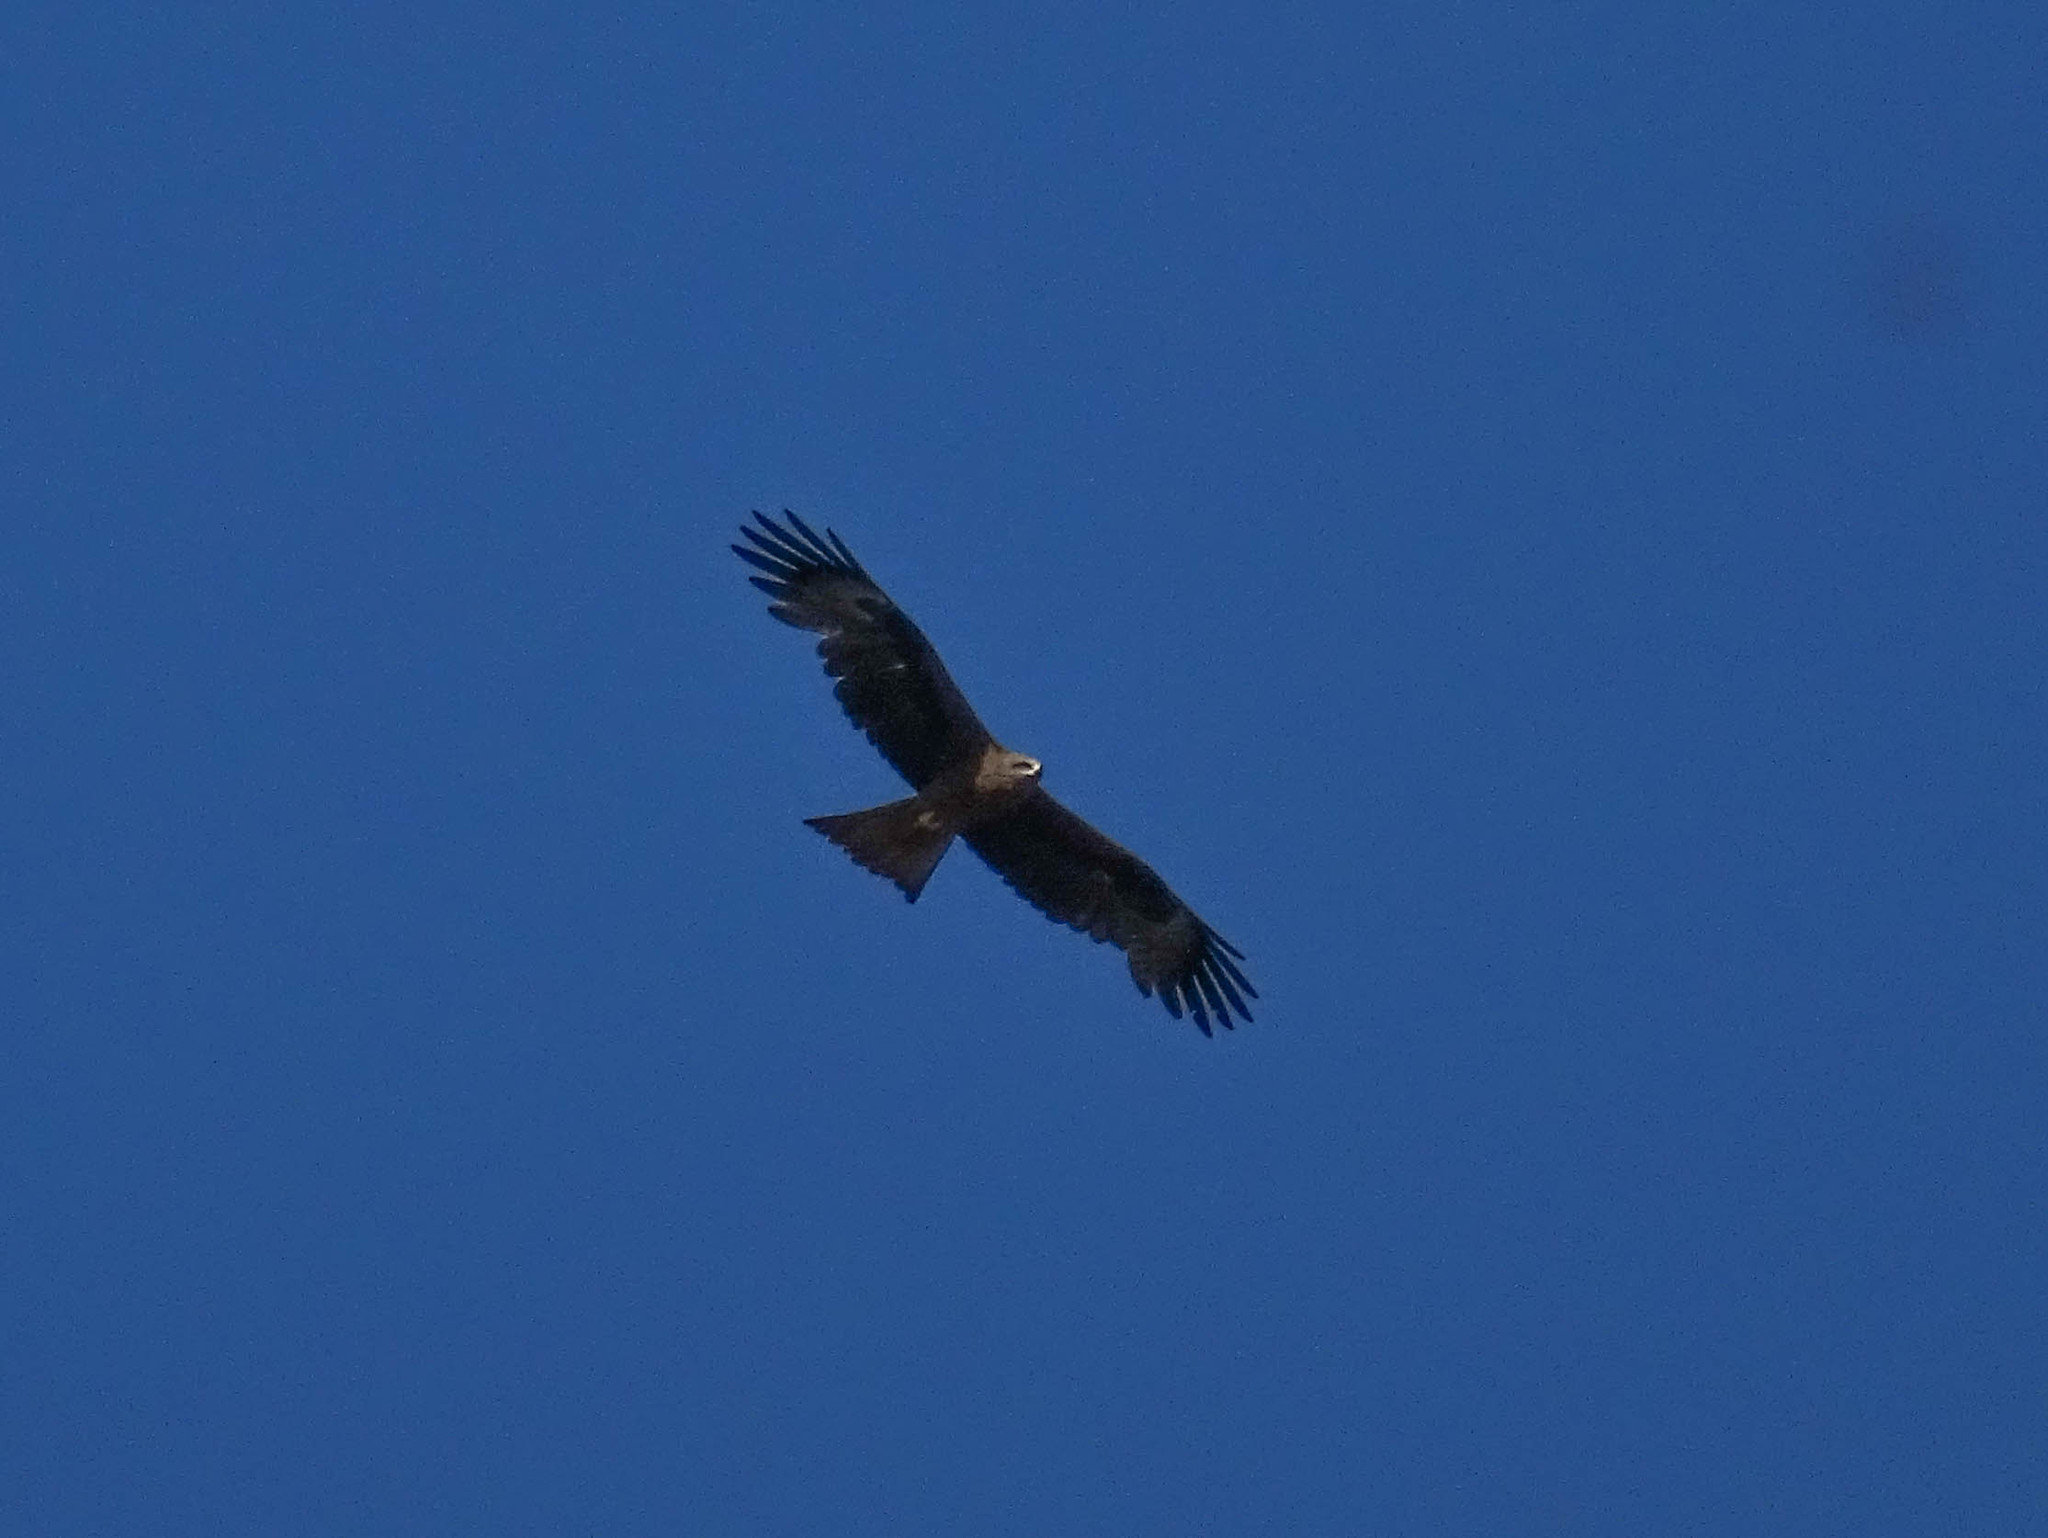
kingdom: Animalia
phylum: Chordata
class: Aves
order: Accipitriformes
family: Accipitridae
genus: Milvus
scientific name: Milvus migrans
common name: Black kite
